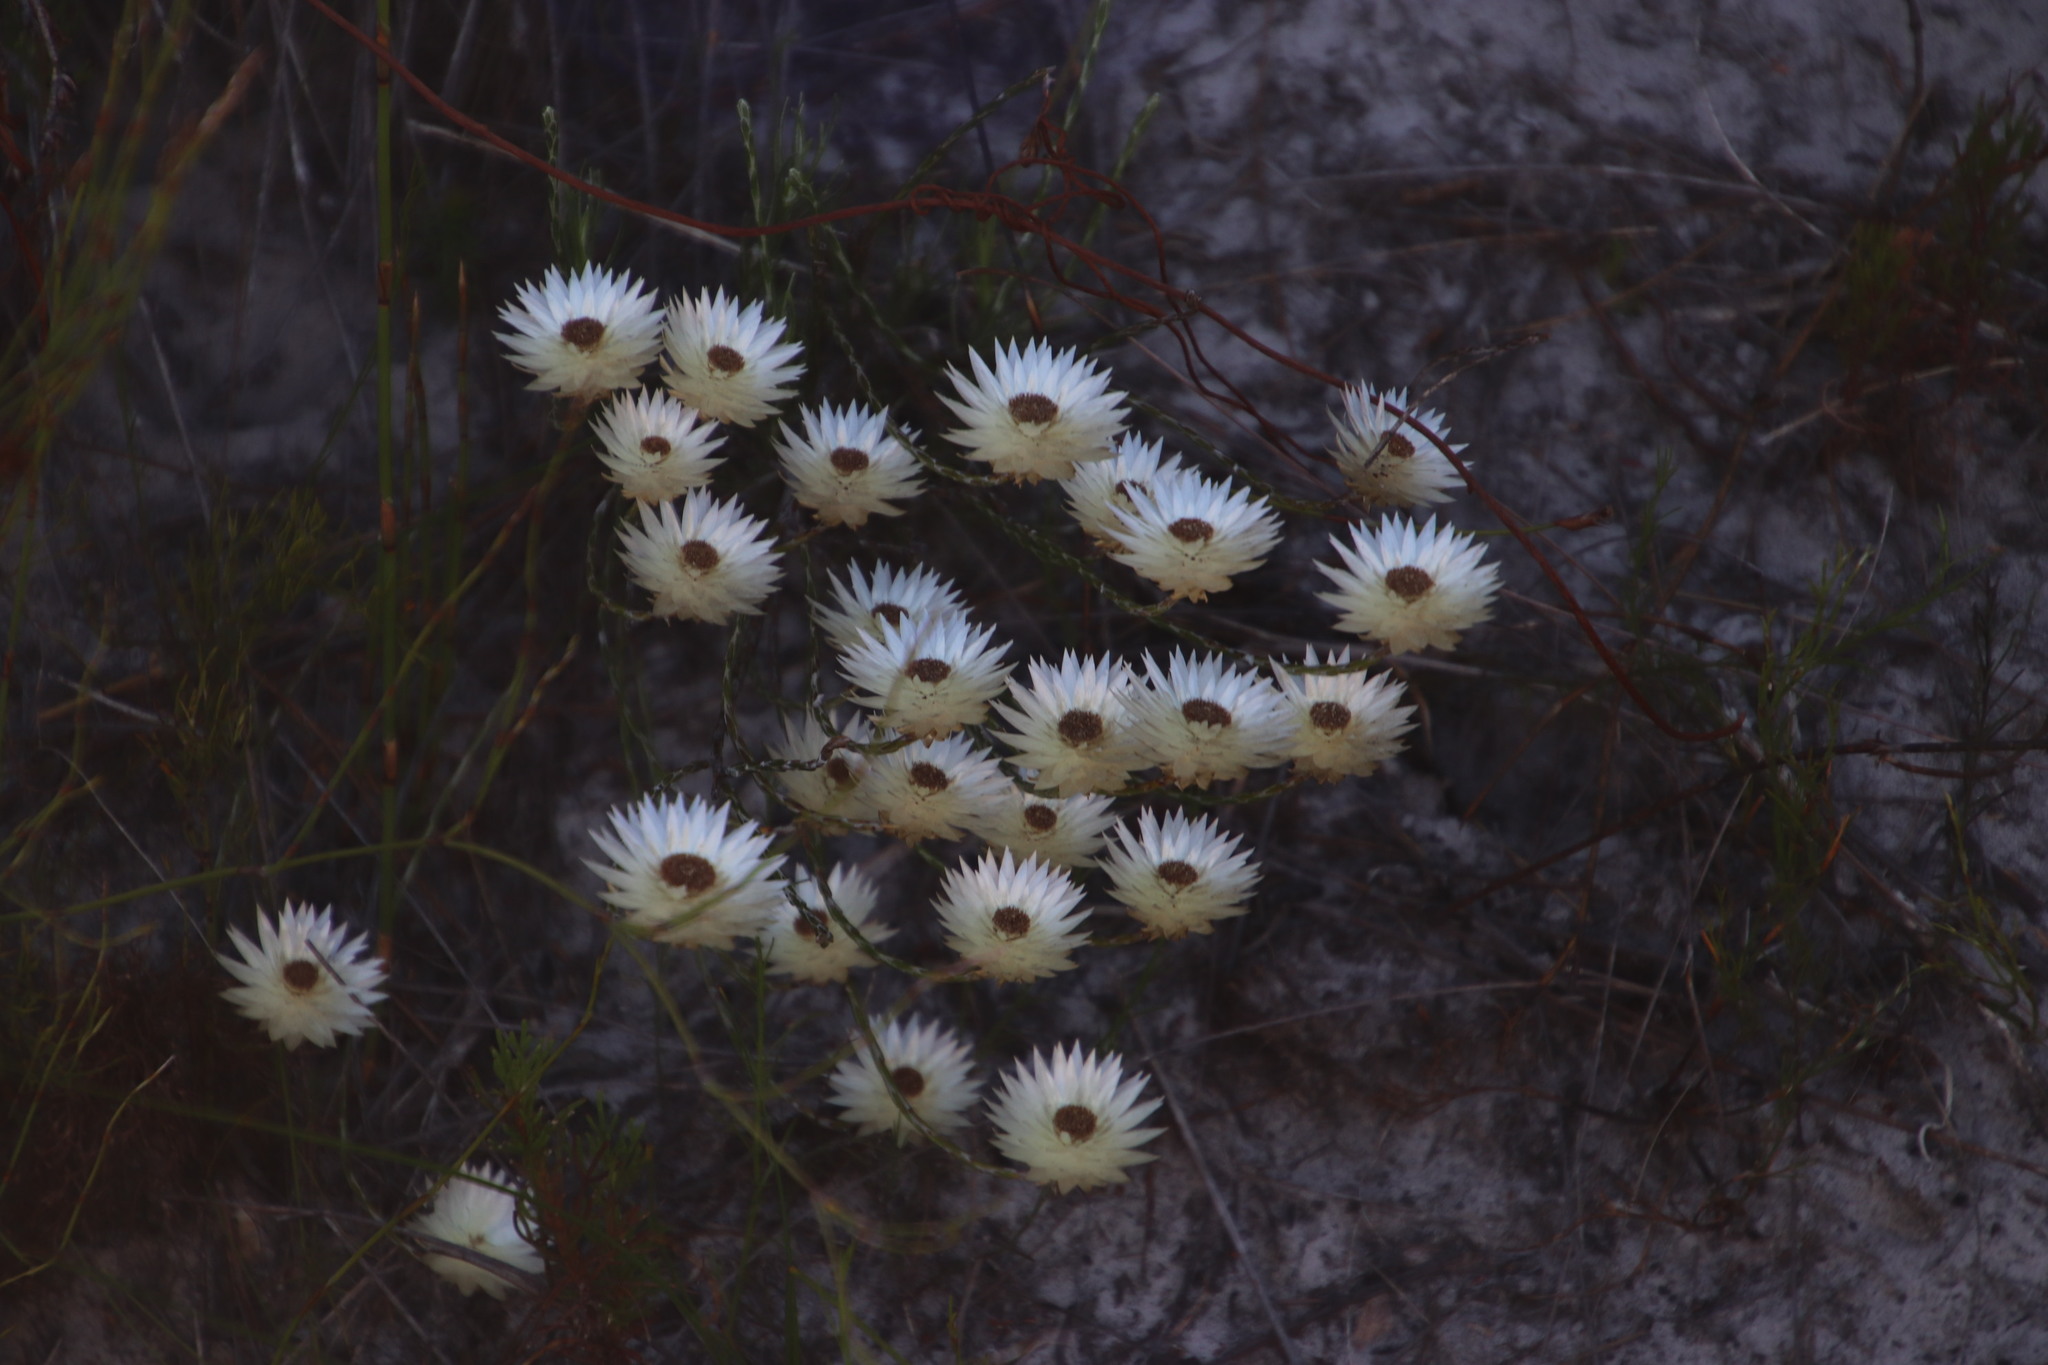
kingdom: Plantae
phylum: Tracheophyta
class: Magnoliopsida
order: Asterales
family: Asteraceae
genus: Edmondia
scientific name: Edmondia sesamoides
